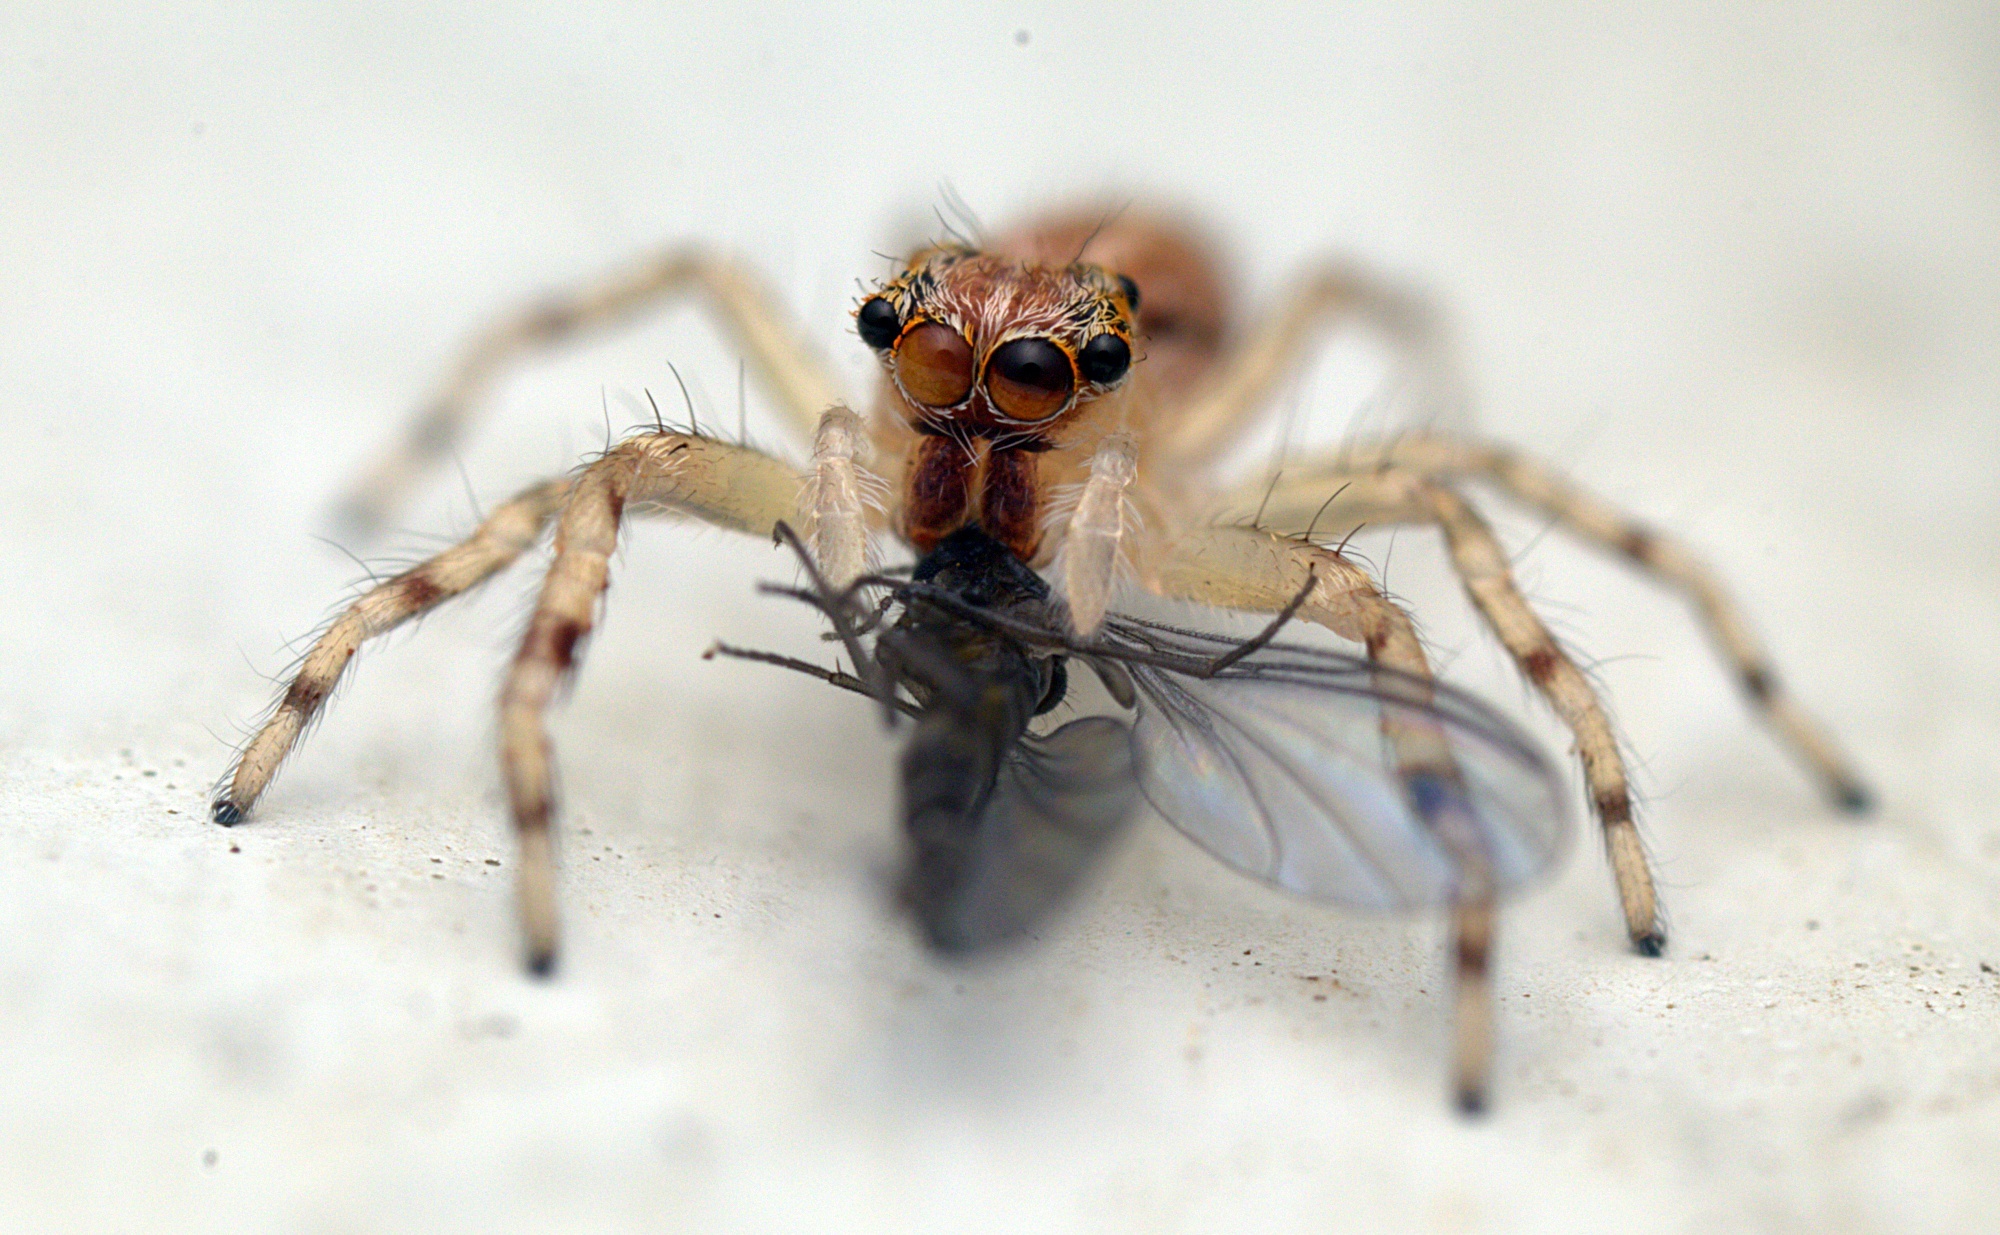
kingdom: Animalia
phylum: Arthropoda
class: Arachnida
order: Araneae
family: Salticidae
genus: Helpis
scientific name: Helpis minitabunda
